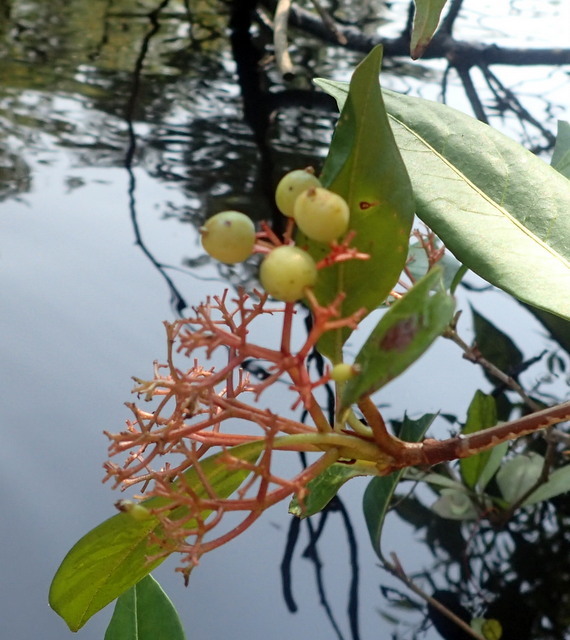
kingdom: Plantae
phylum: Tracheophyta
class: Magnoliopsida
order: Dipsacales
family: Viburnaceae
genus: Viburnum
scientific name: Viburnum nudum
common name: Possum haw
